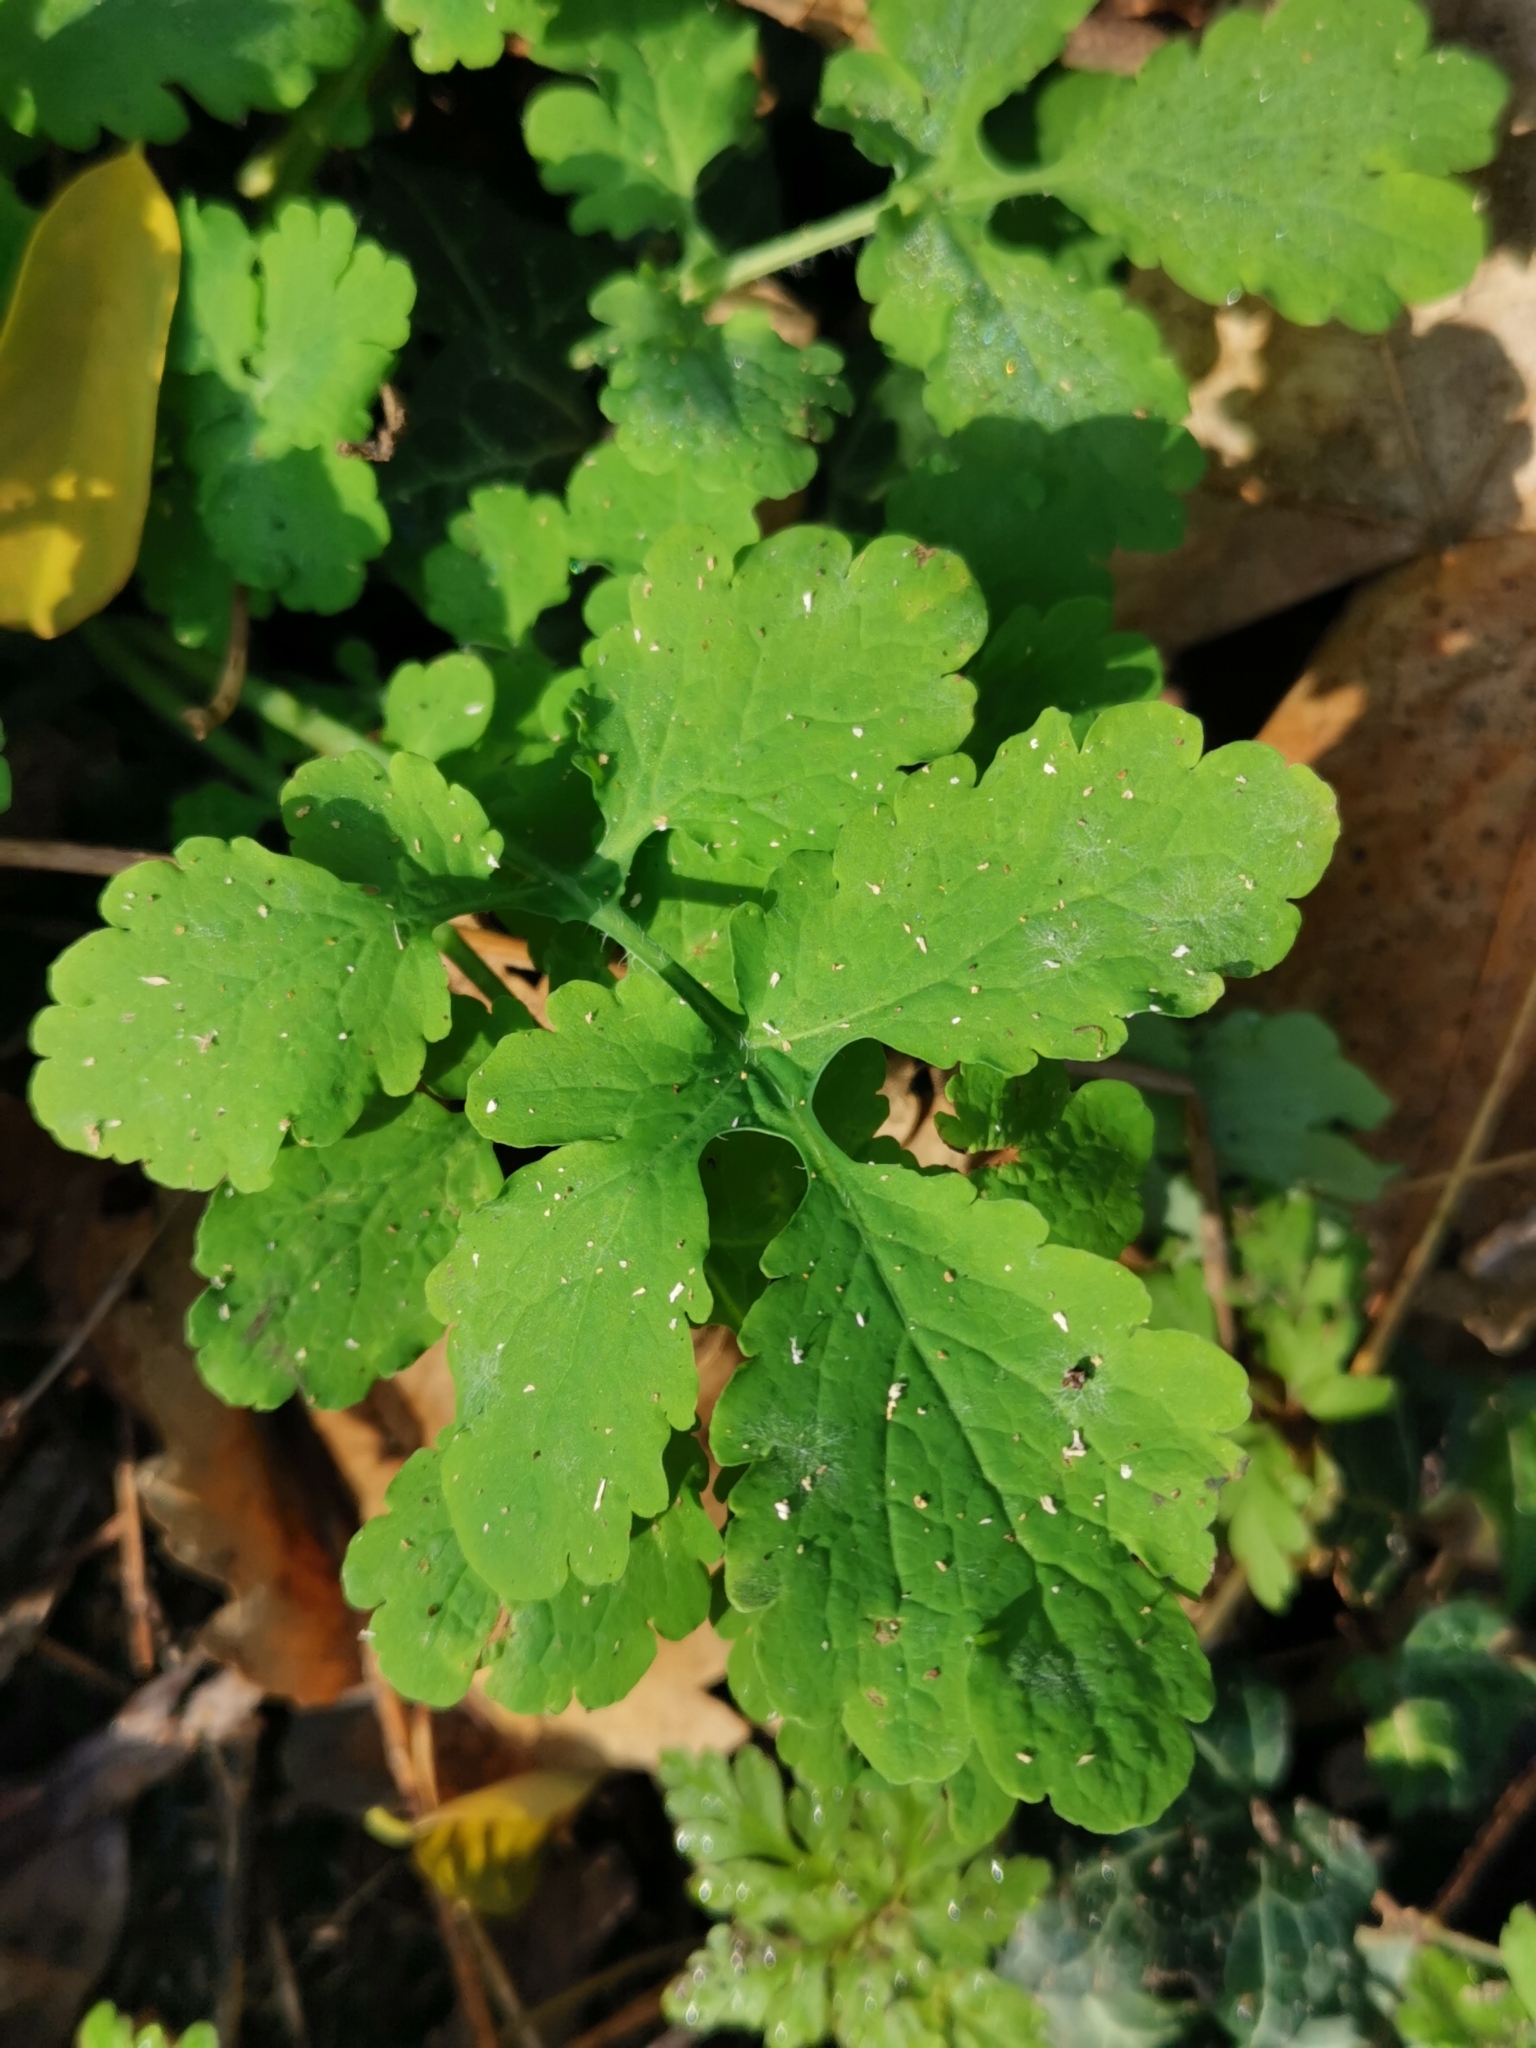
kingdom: Plantae
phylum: Tracheophyta
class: Magnoliopsida
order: Ranunculales
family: Papaveraceae
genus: Chelidonium
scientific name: Chelidonium majus
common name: Greater celandine
